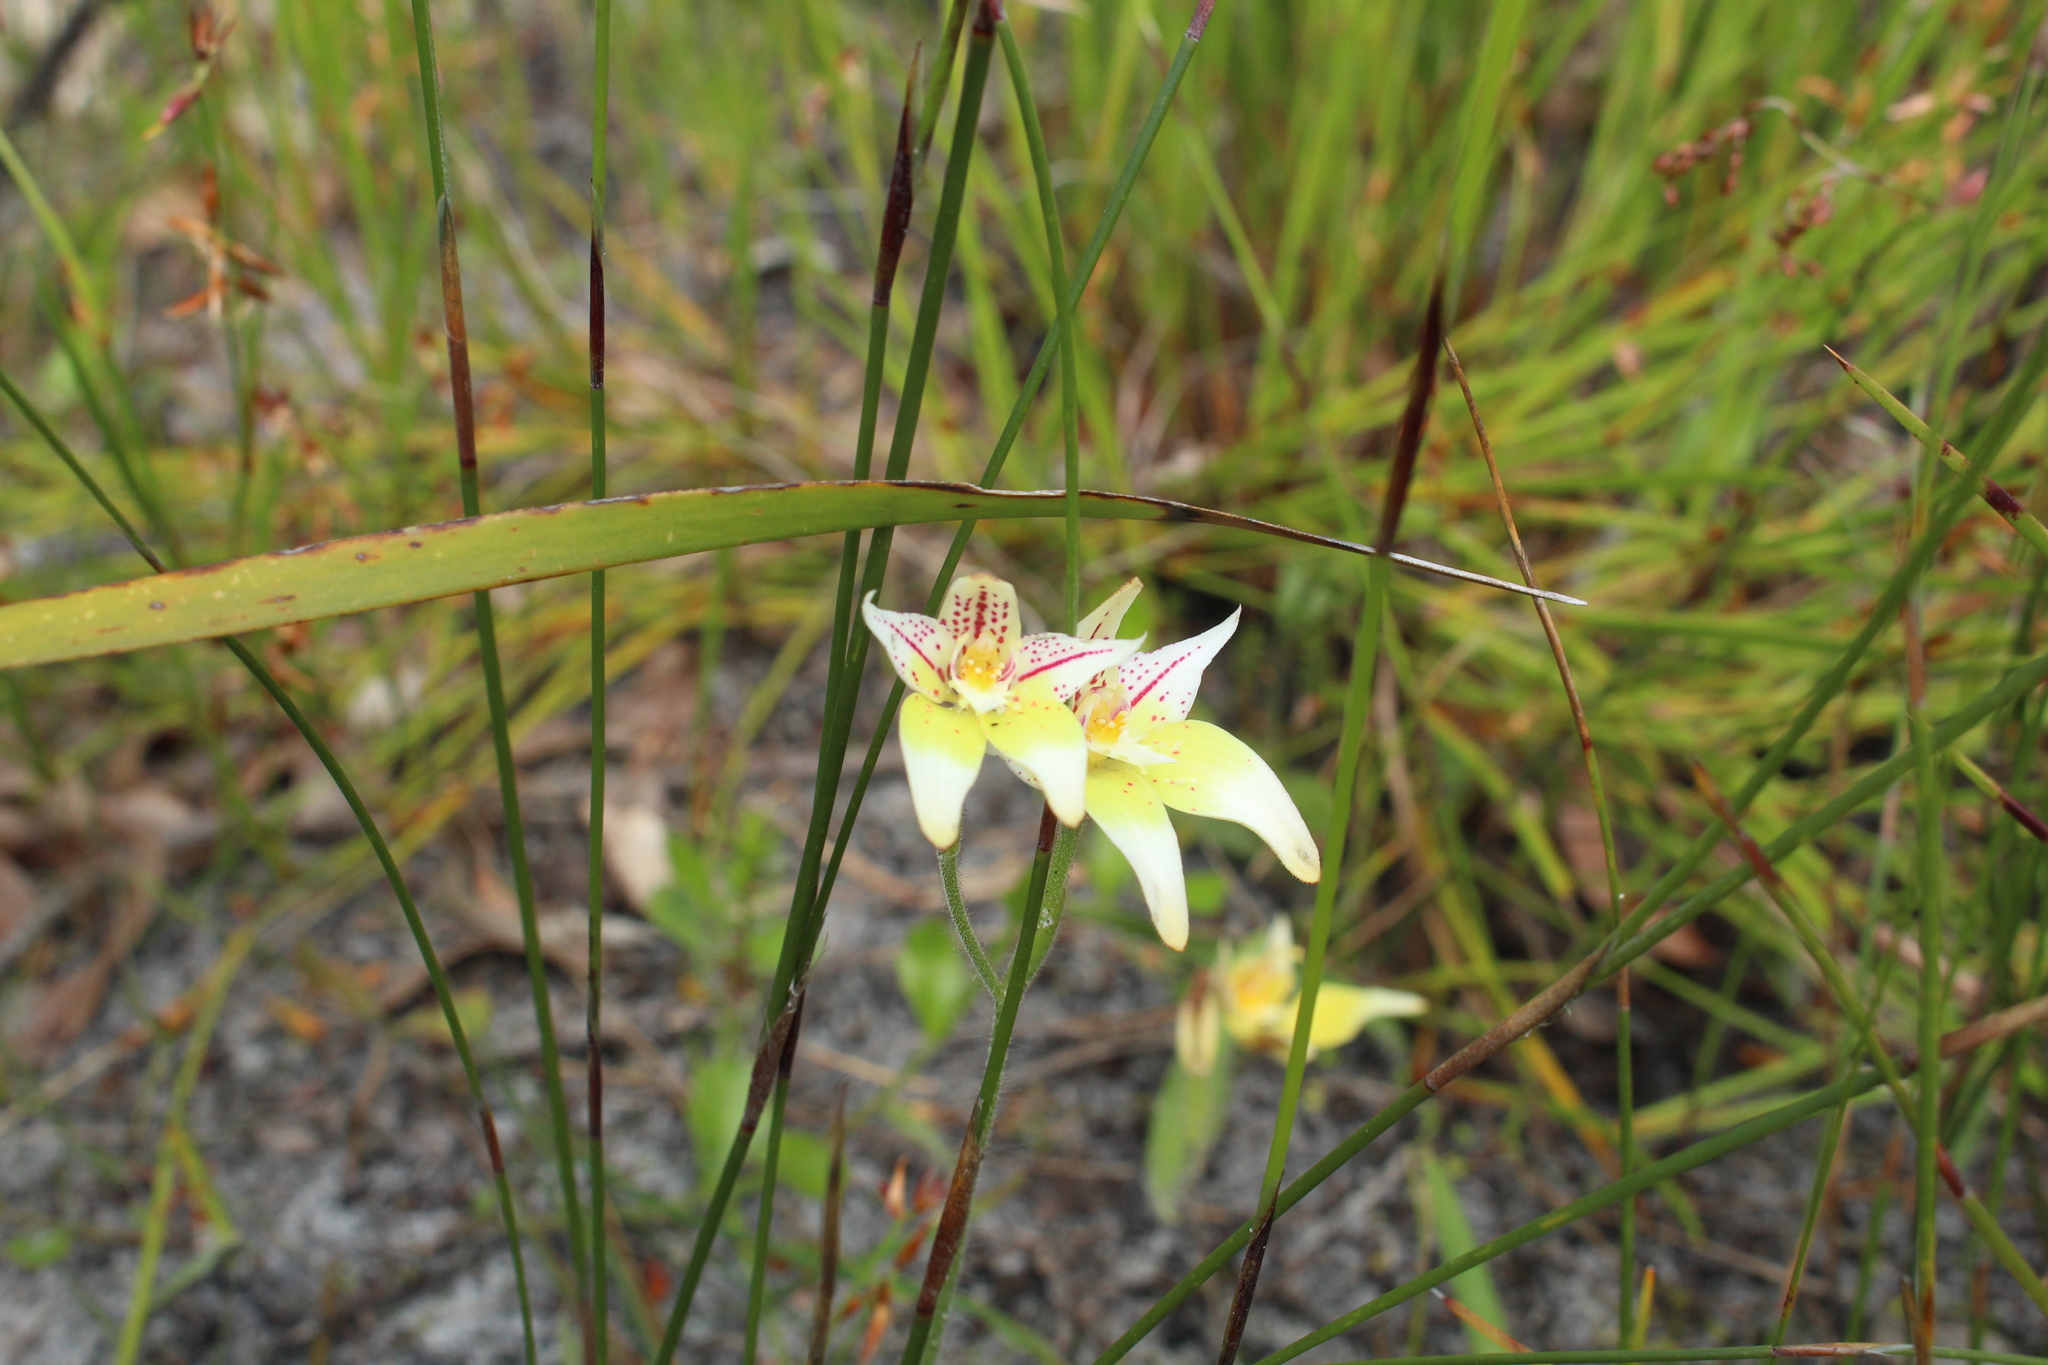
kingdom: Plantae
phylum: Tracheophyta
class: Liliopsida
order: Asparagales
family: Orchidaceae
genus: Caladenia
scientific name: Caladenia flava
